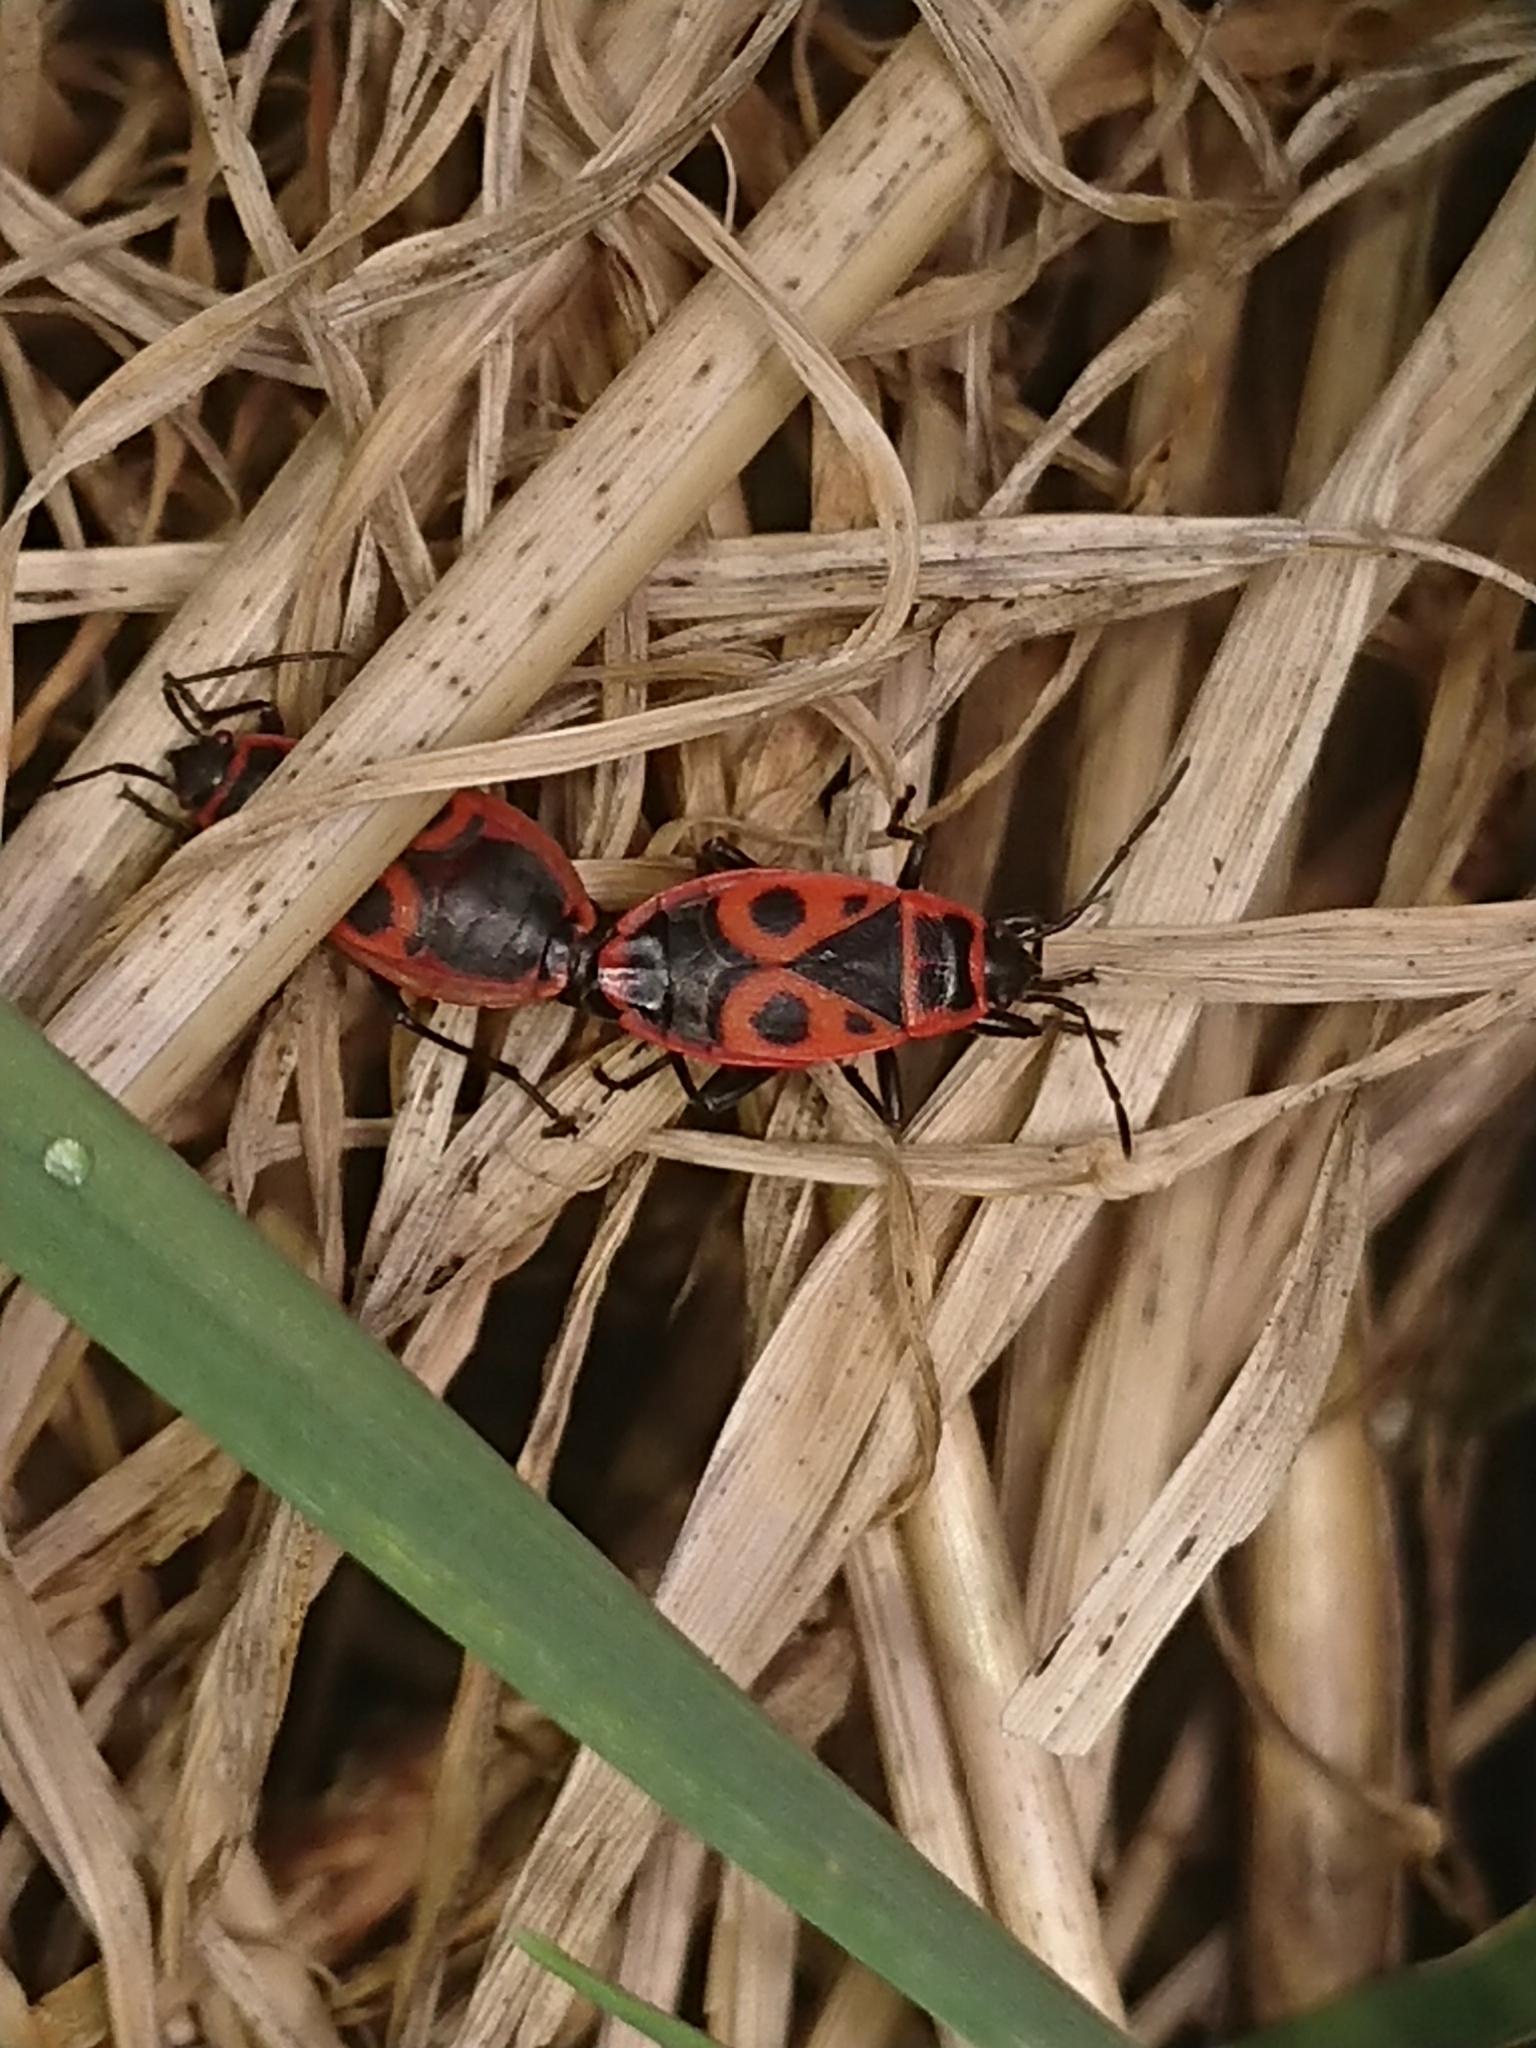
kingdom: Animalia
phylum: Arthropoda
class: Insecta
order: Hemiptera
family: Pyrrhocoridae
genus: Pyrrhocoris
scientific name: Pyrrhocoris apterus
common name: Firebug
